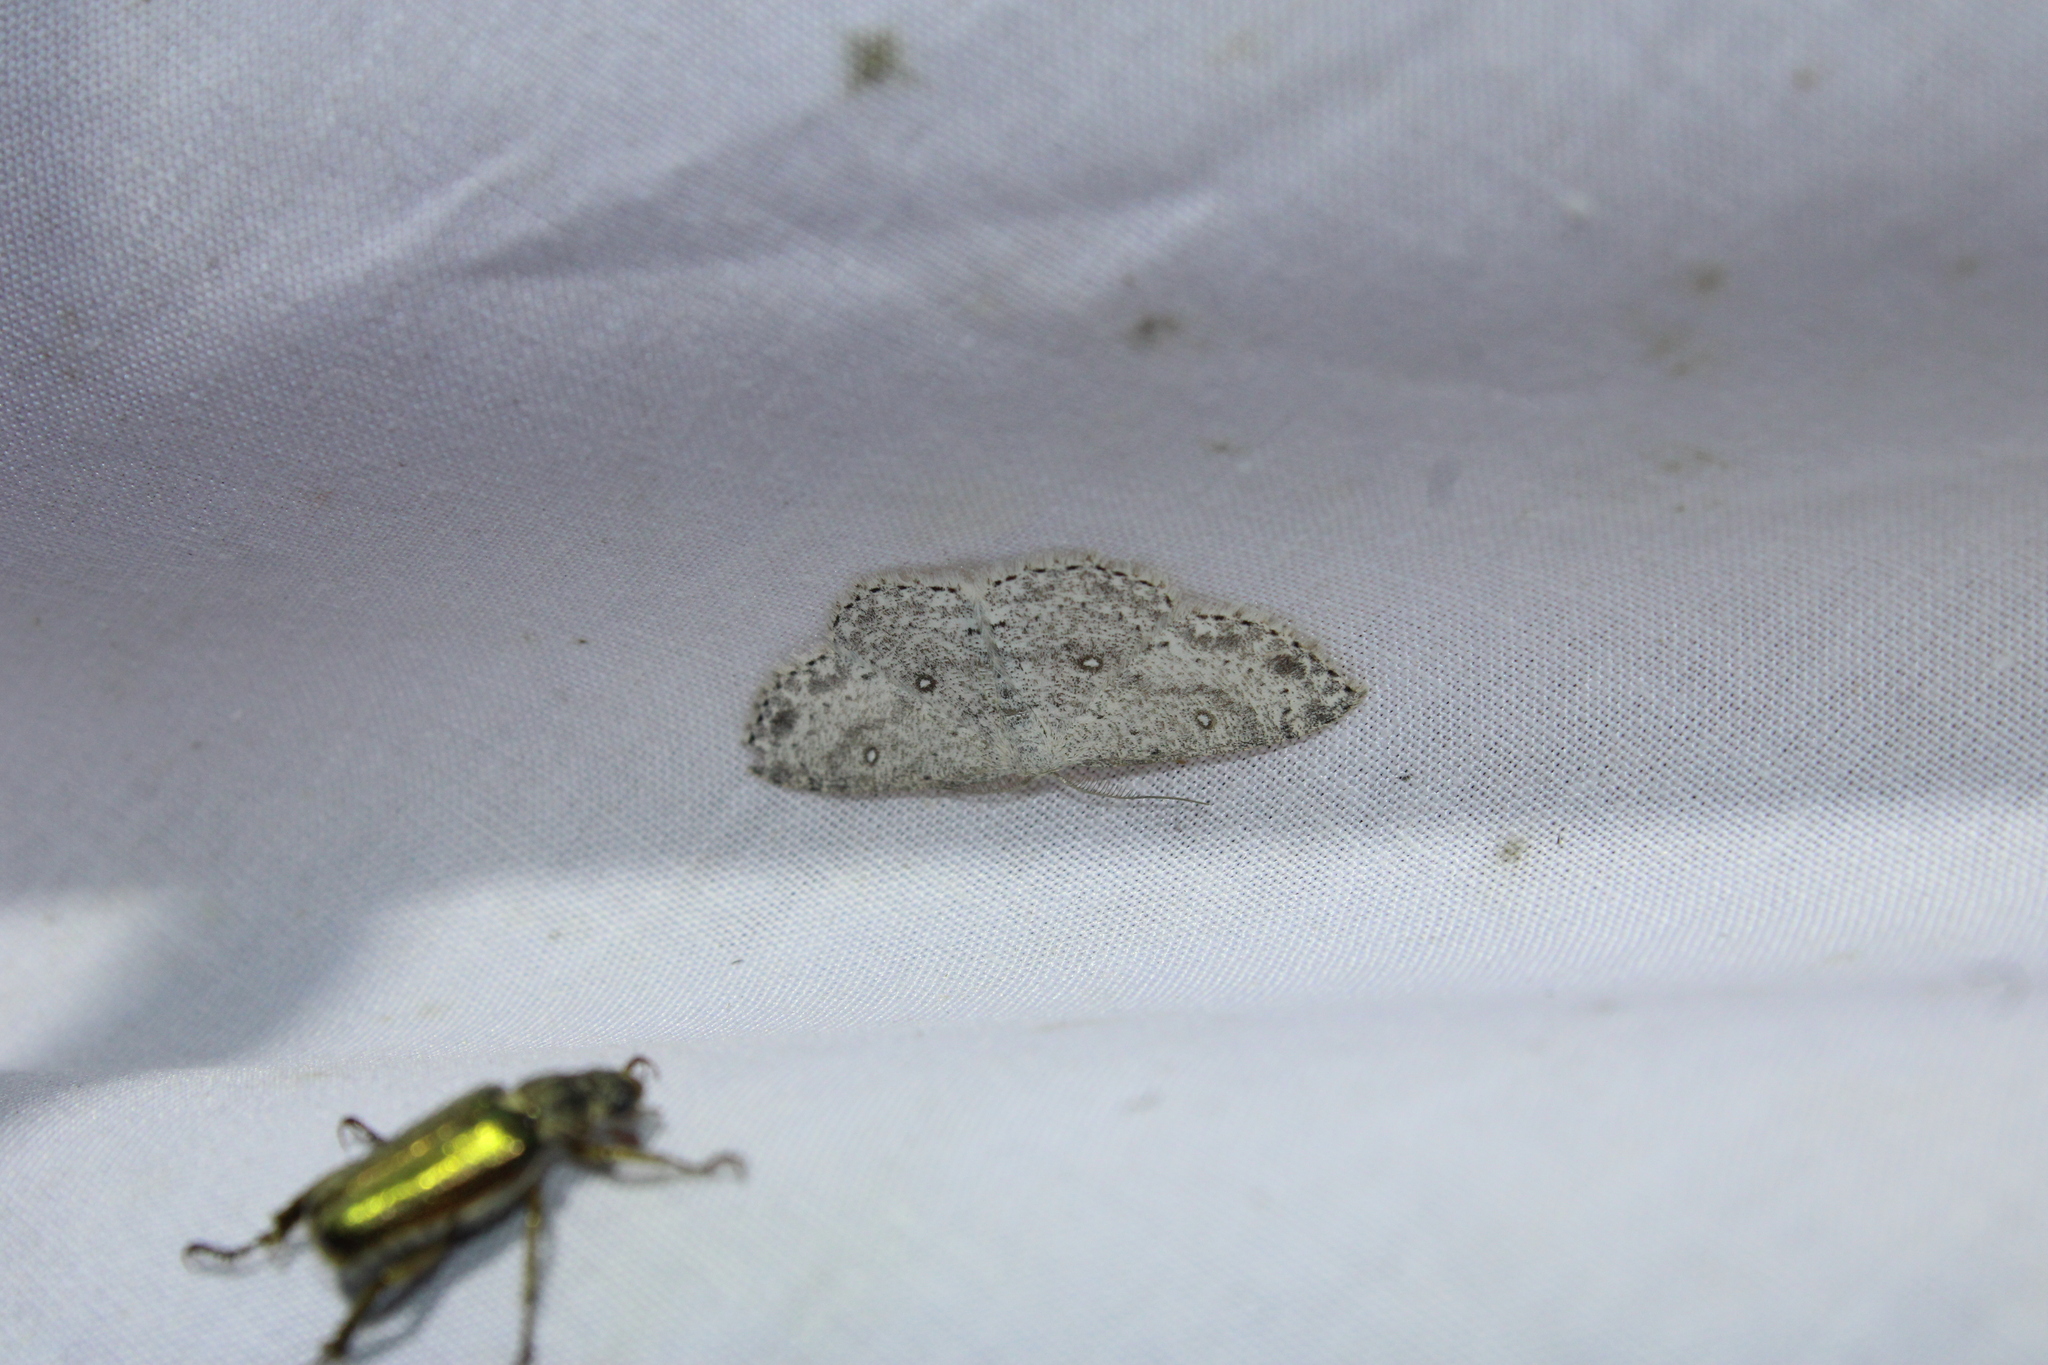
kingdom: Animalia
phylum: Arthropoda
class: Insecta
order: Lepidoptera
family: Geometridae
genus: Cyclophora
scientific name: Cyclophora pendulinaria
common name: Sweet fern geometer
